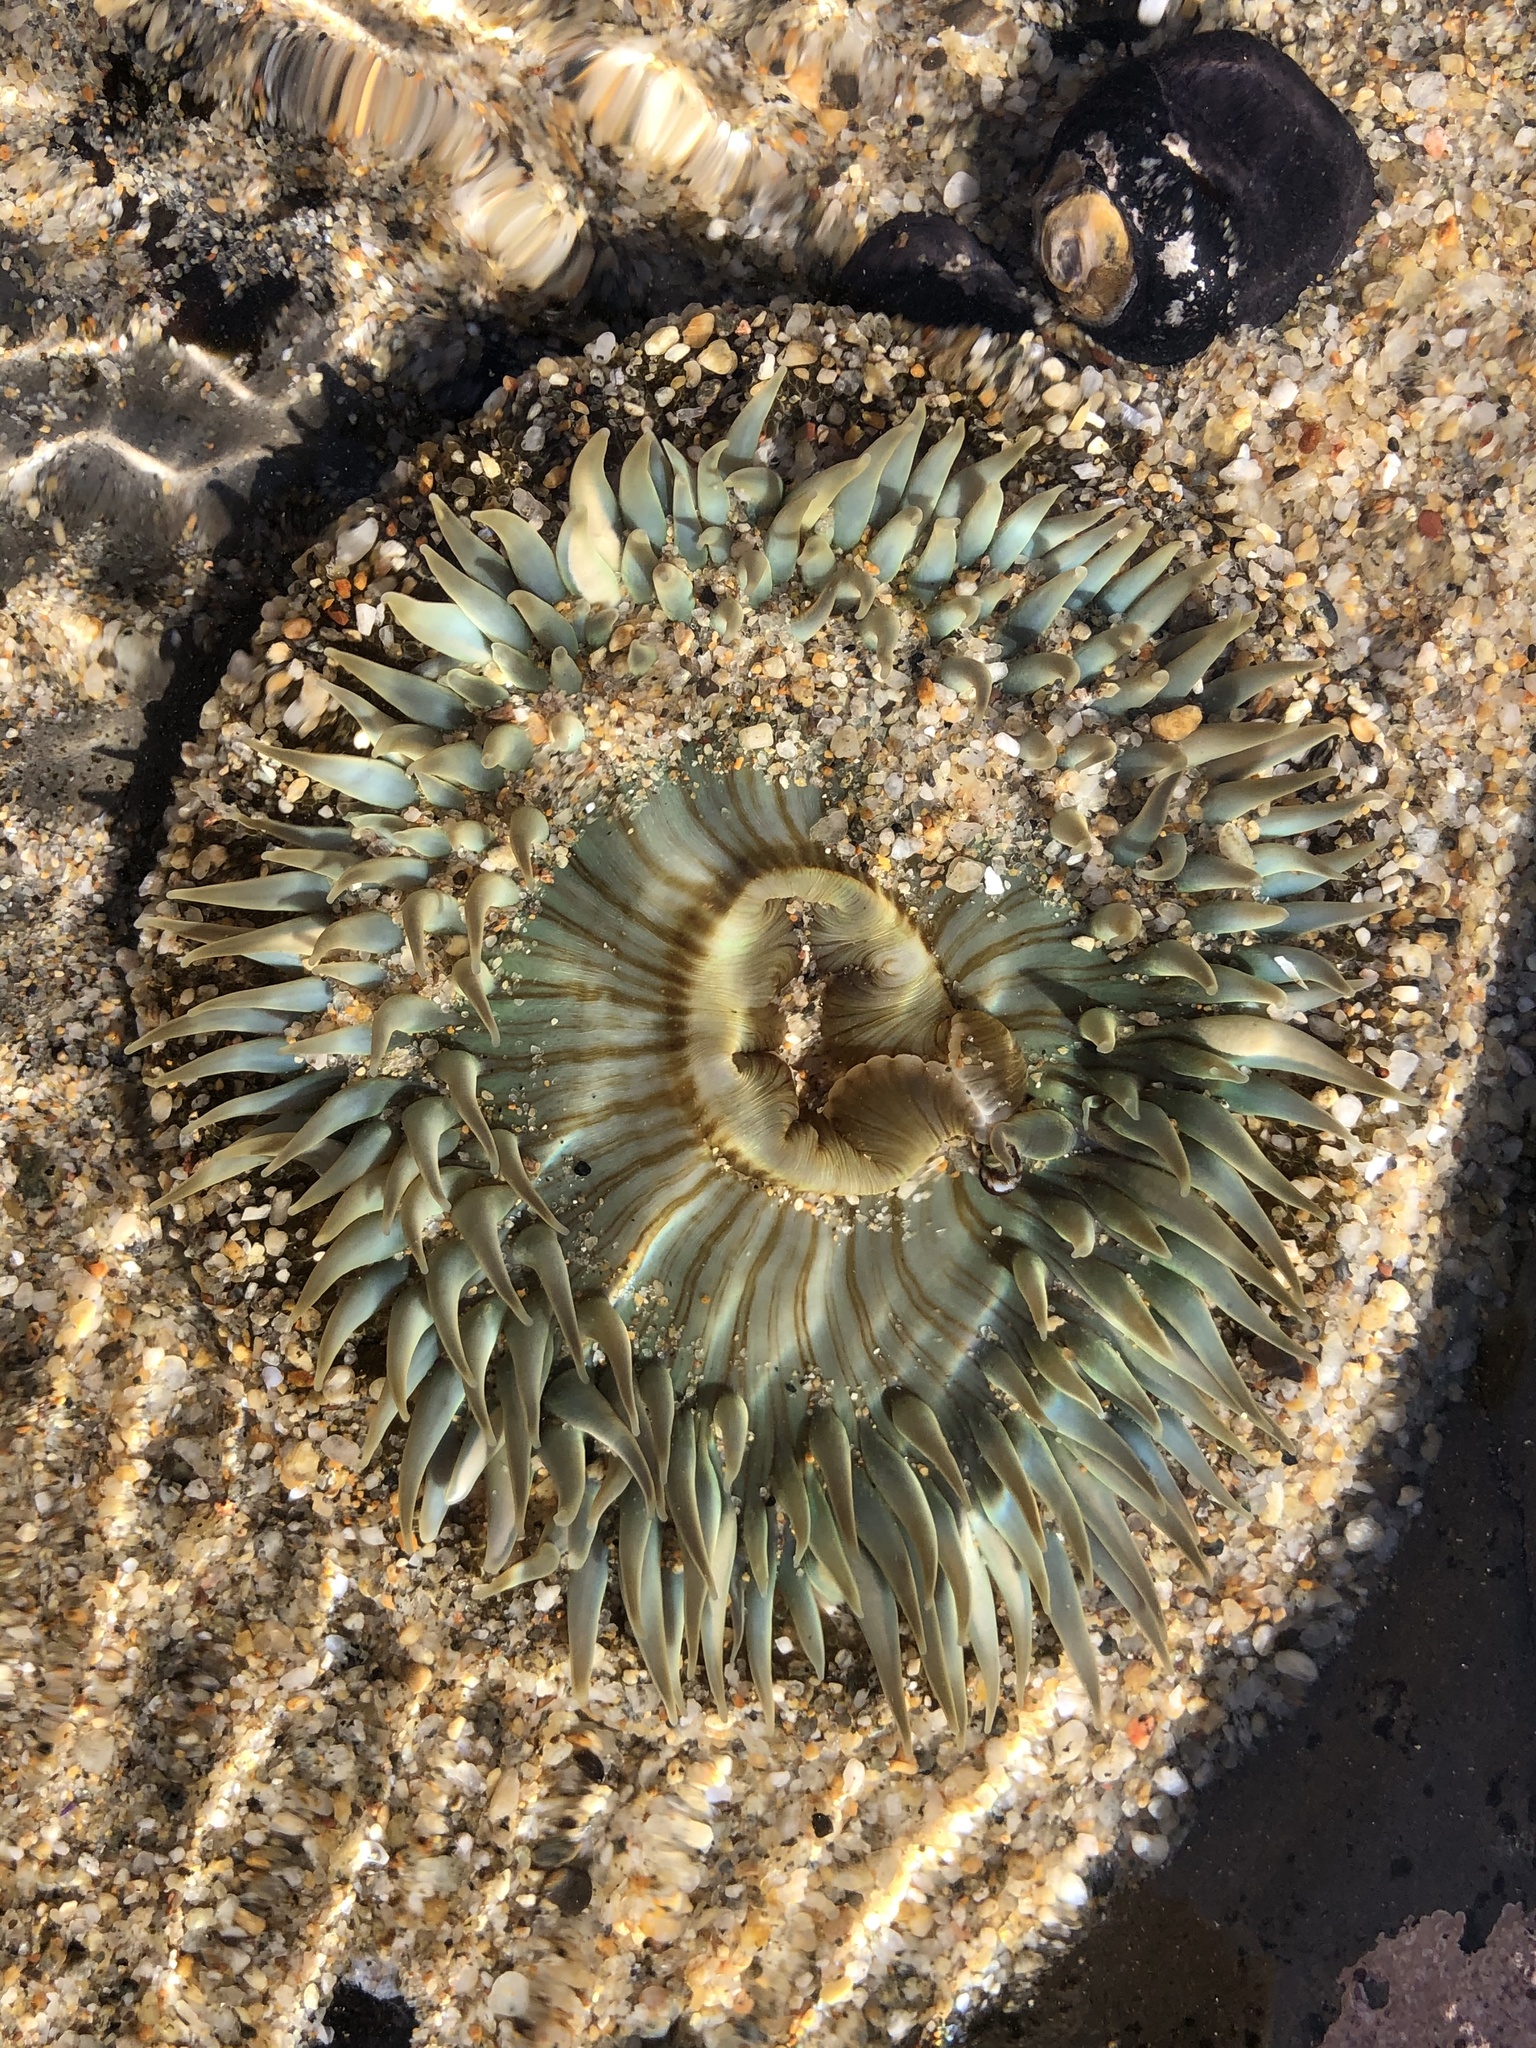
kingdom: Animalia
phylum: Cnidaria
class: Anthozoa
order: Actiniaria
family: Actiniidae
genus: Anthopleura
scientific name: Anthopleura sola
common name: Sun anemone
